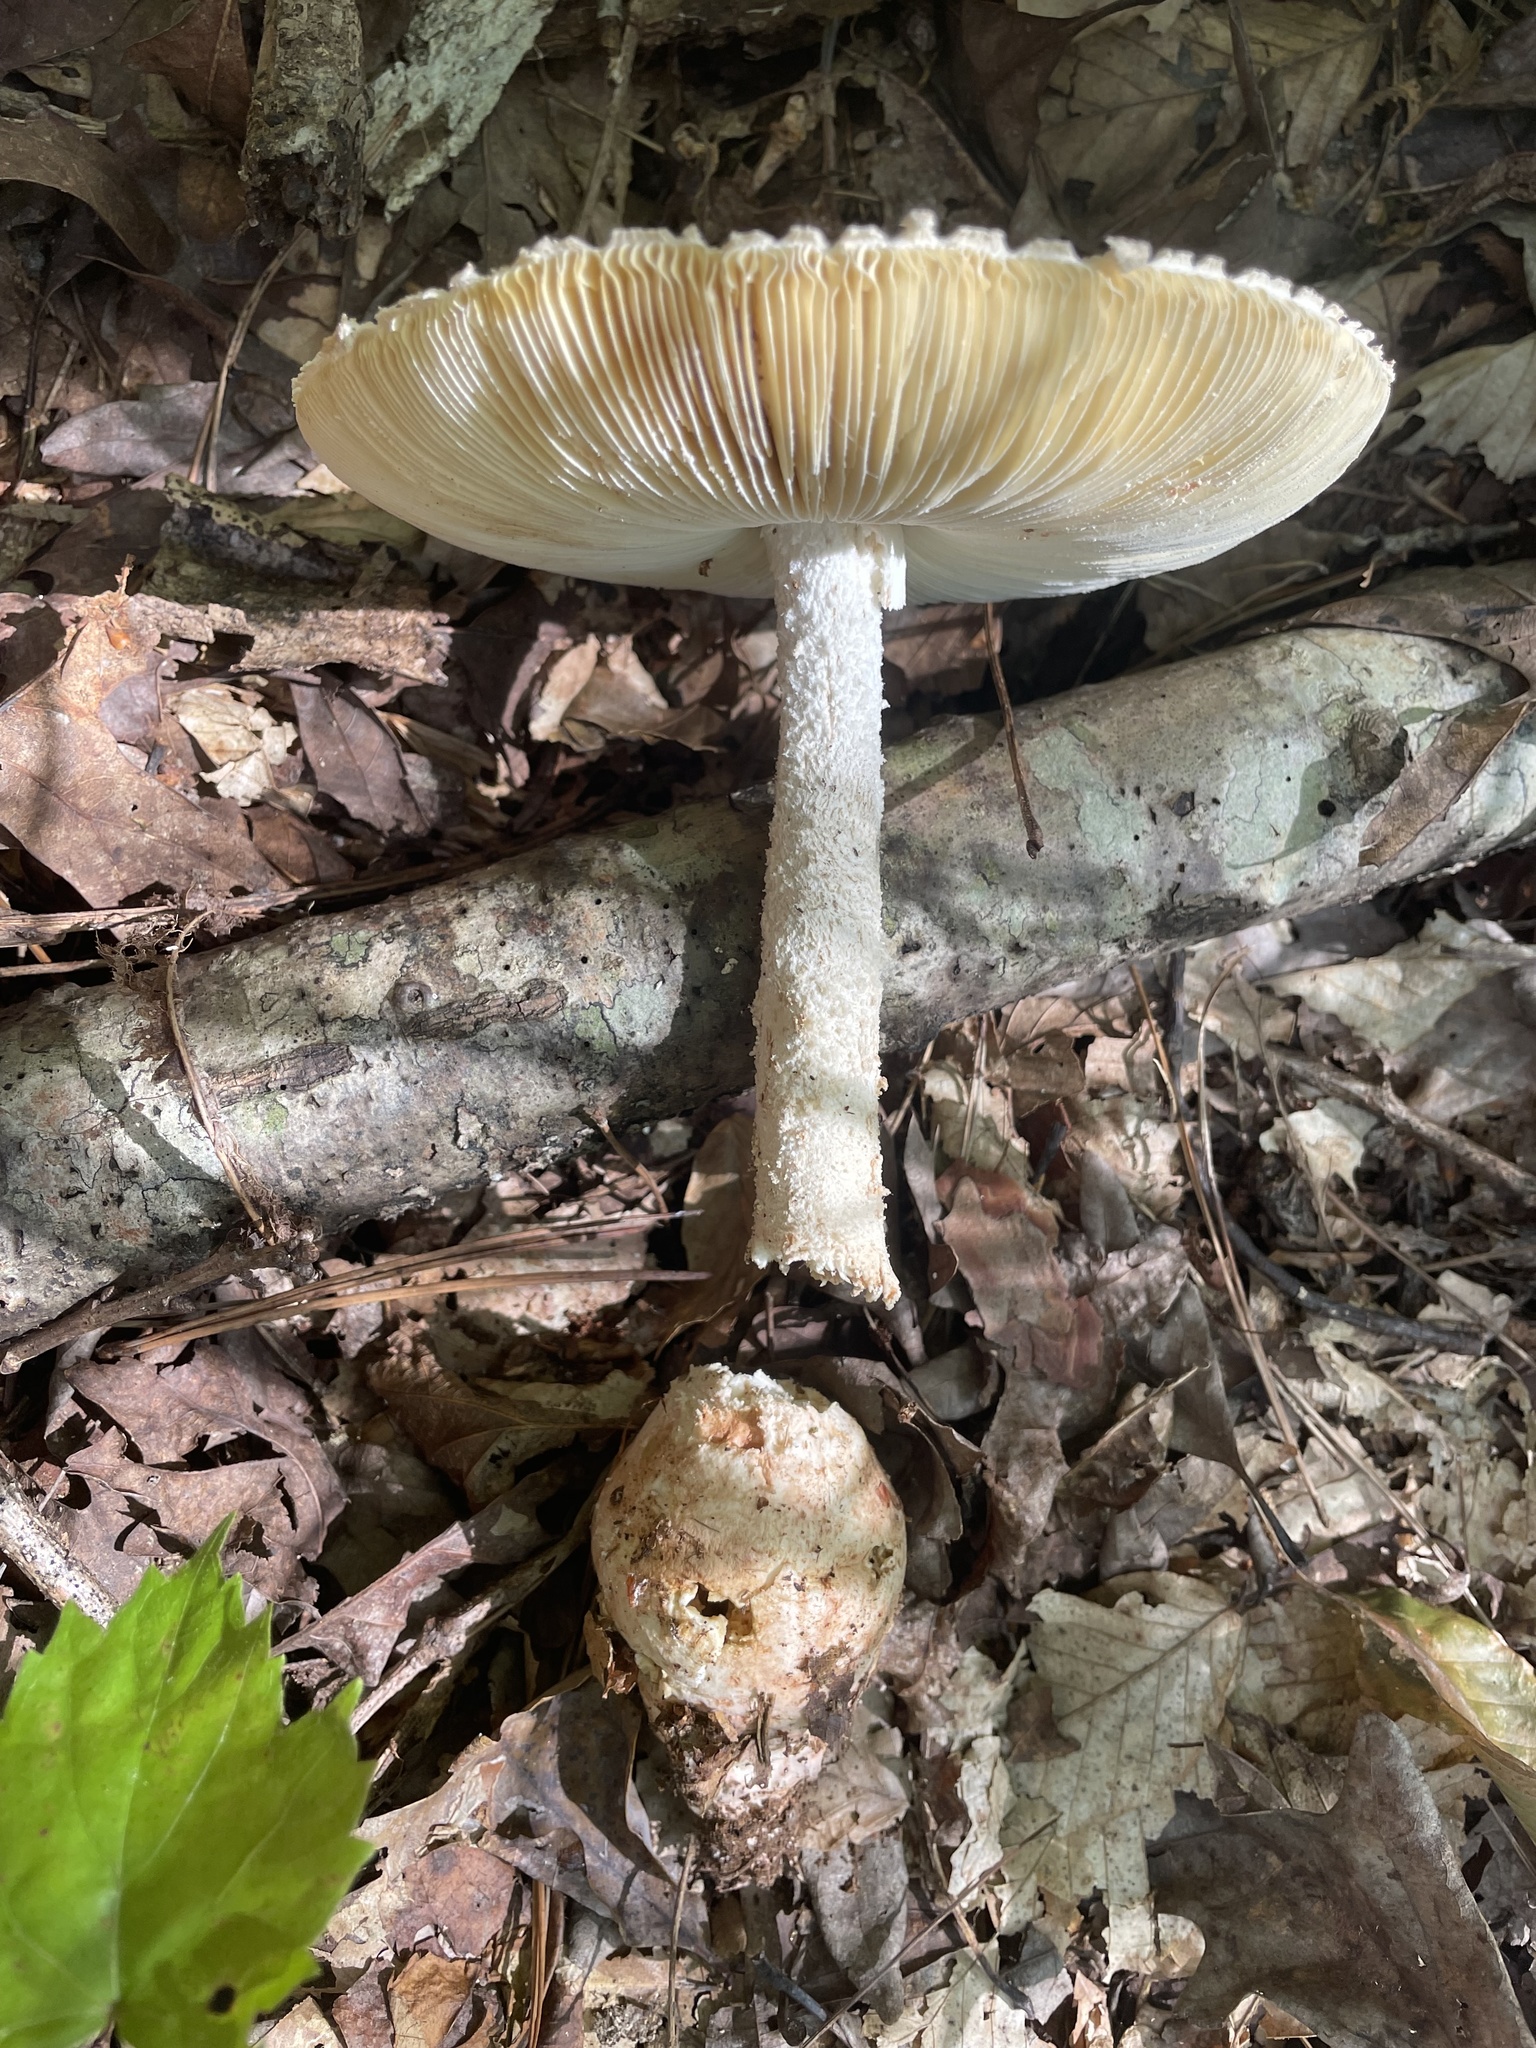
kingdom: Fungi
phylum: Basidiomycota
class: Agaricomycetes
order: Agaricales
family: Amanitaceae
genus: Amanita
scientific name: Amanita daucipes
